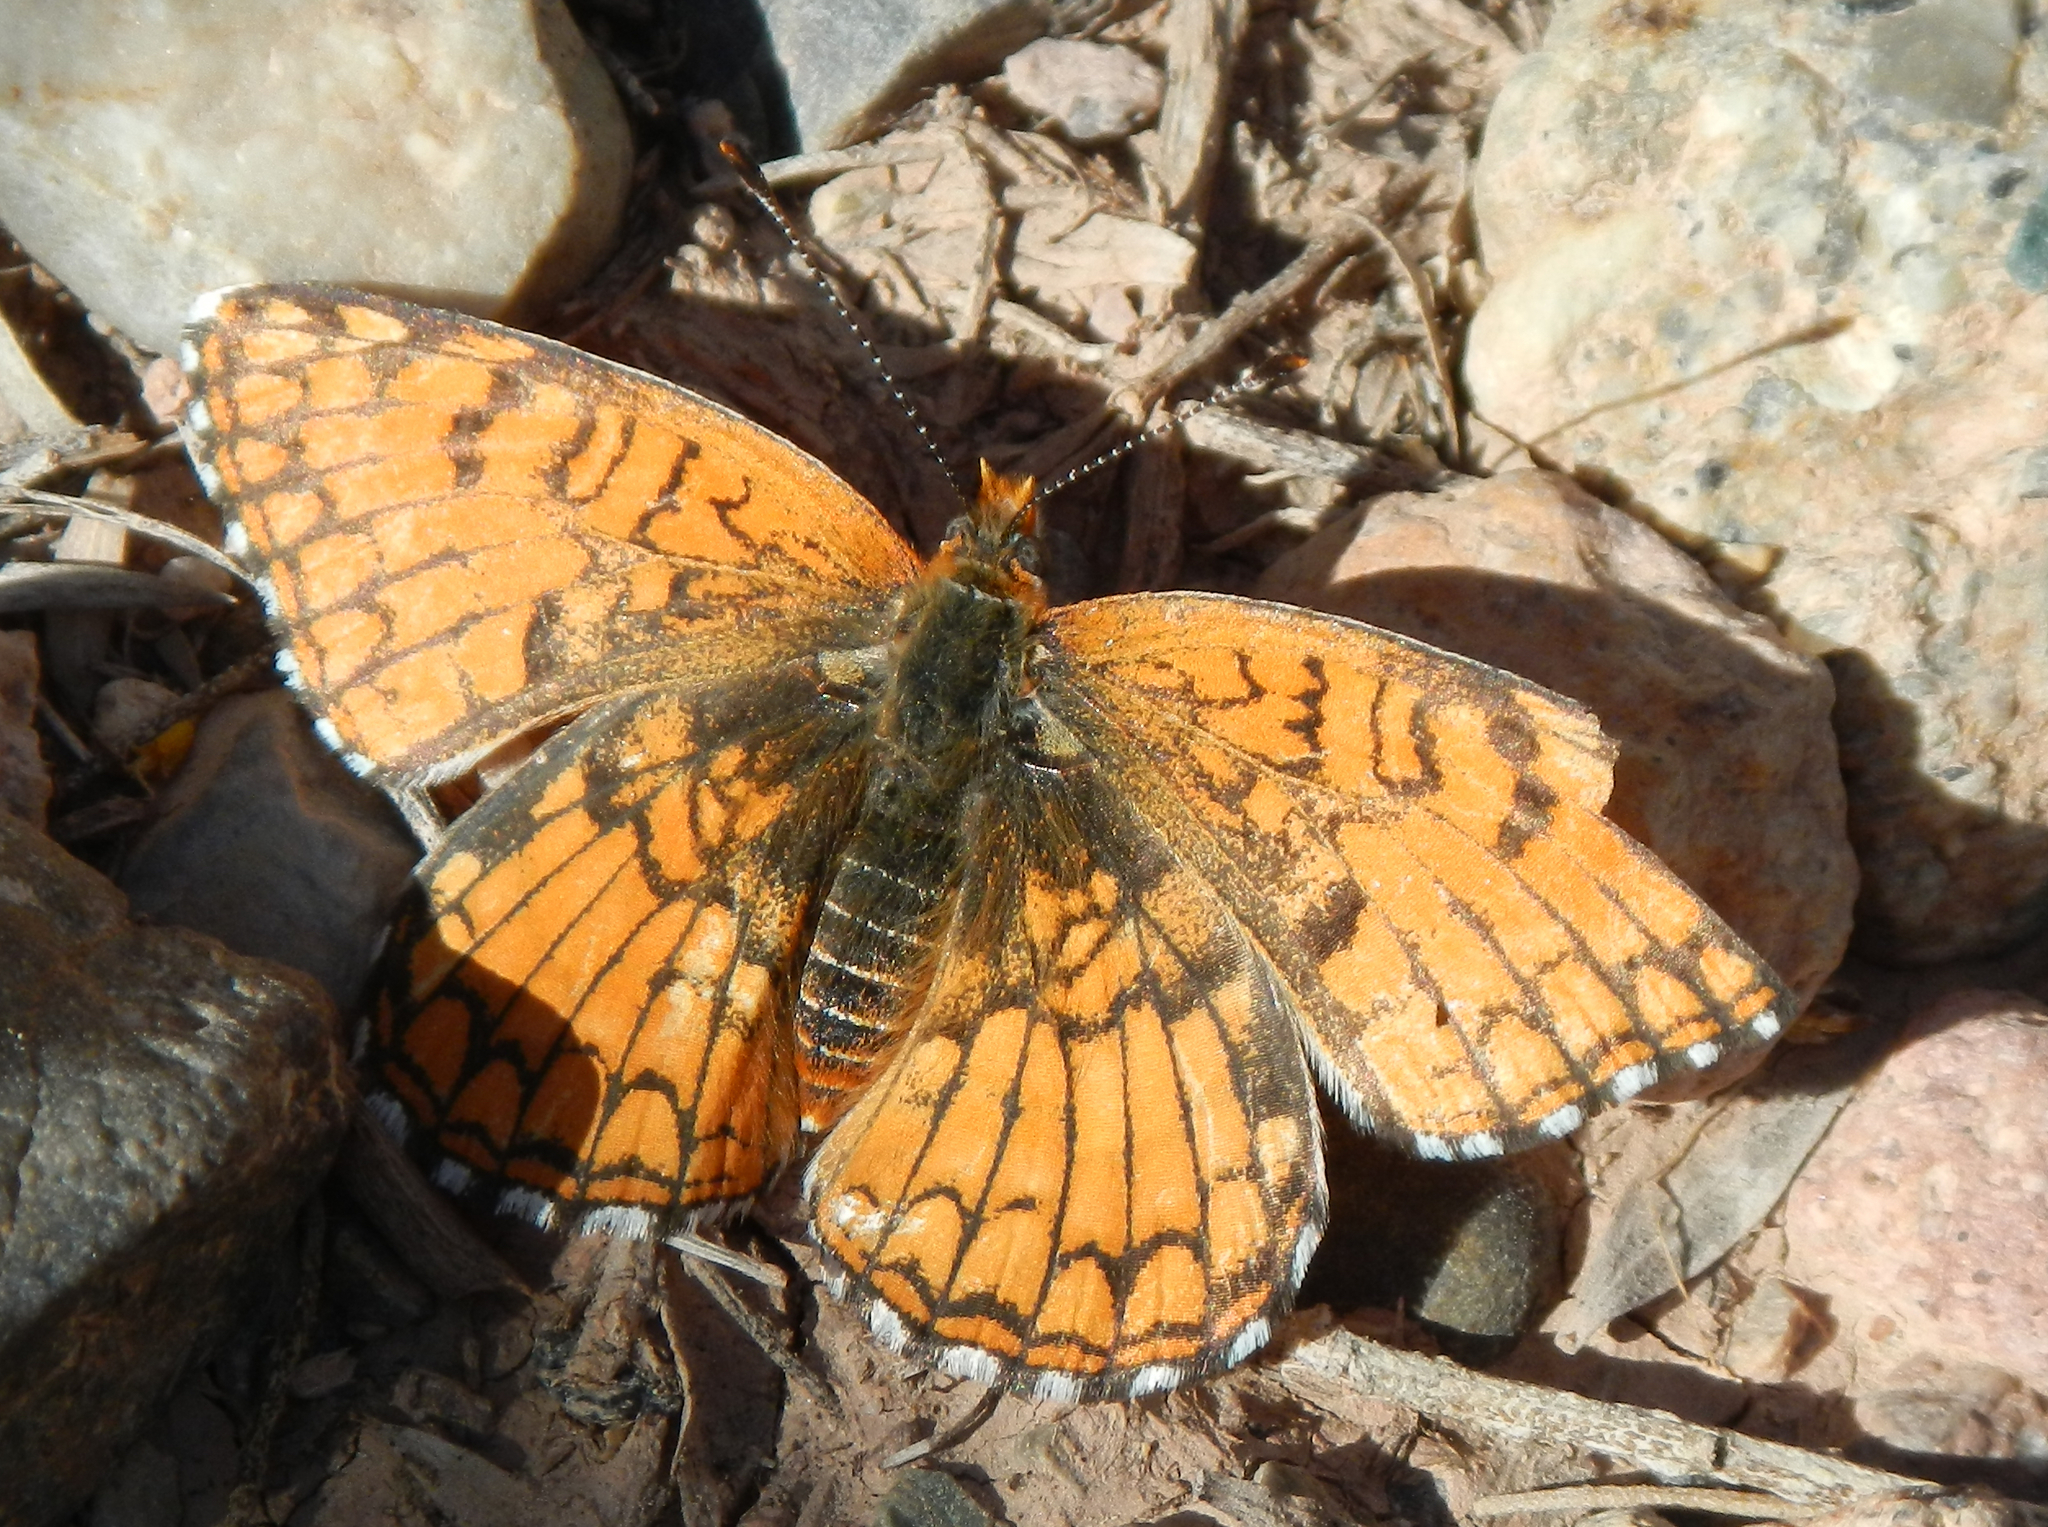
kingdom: Animalia
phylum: Arthropoda
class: Insecta
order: Lepidoptera
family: Nymphalidae
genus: Chlosyne
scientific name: Chlosyne acastus
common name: Sagebrush checkerspot
